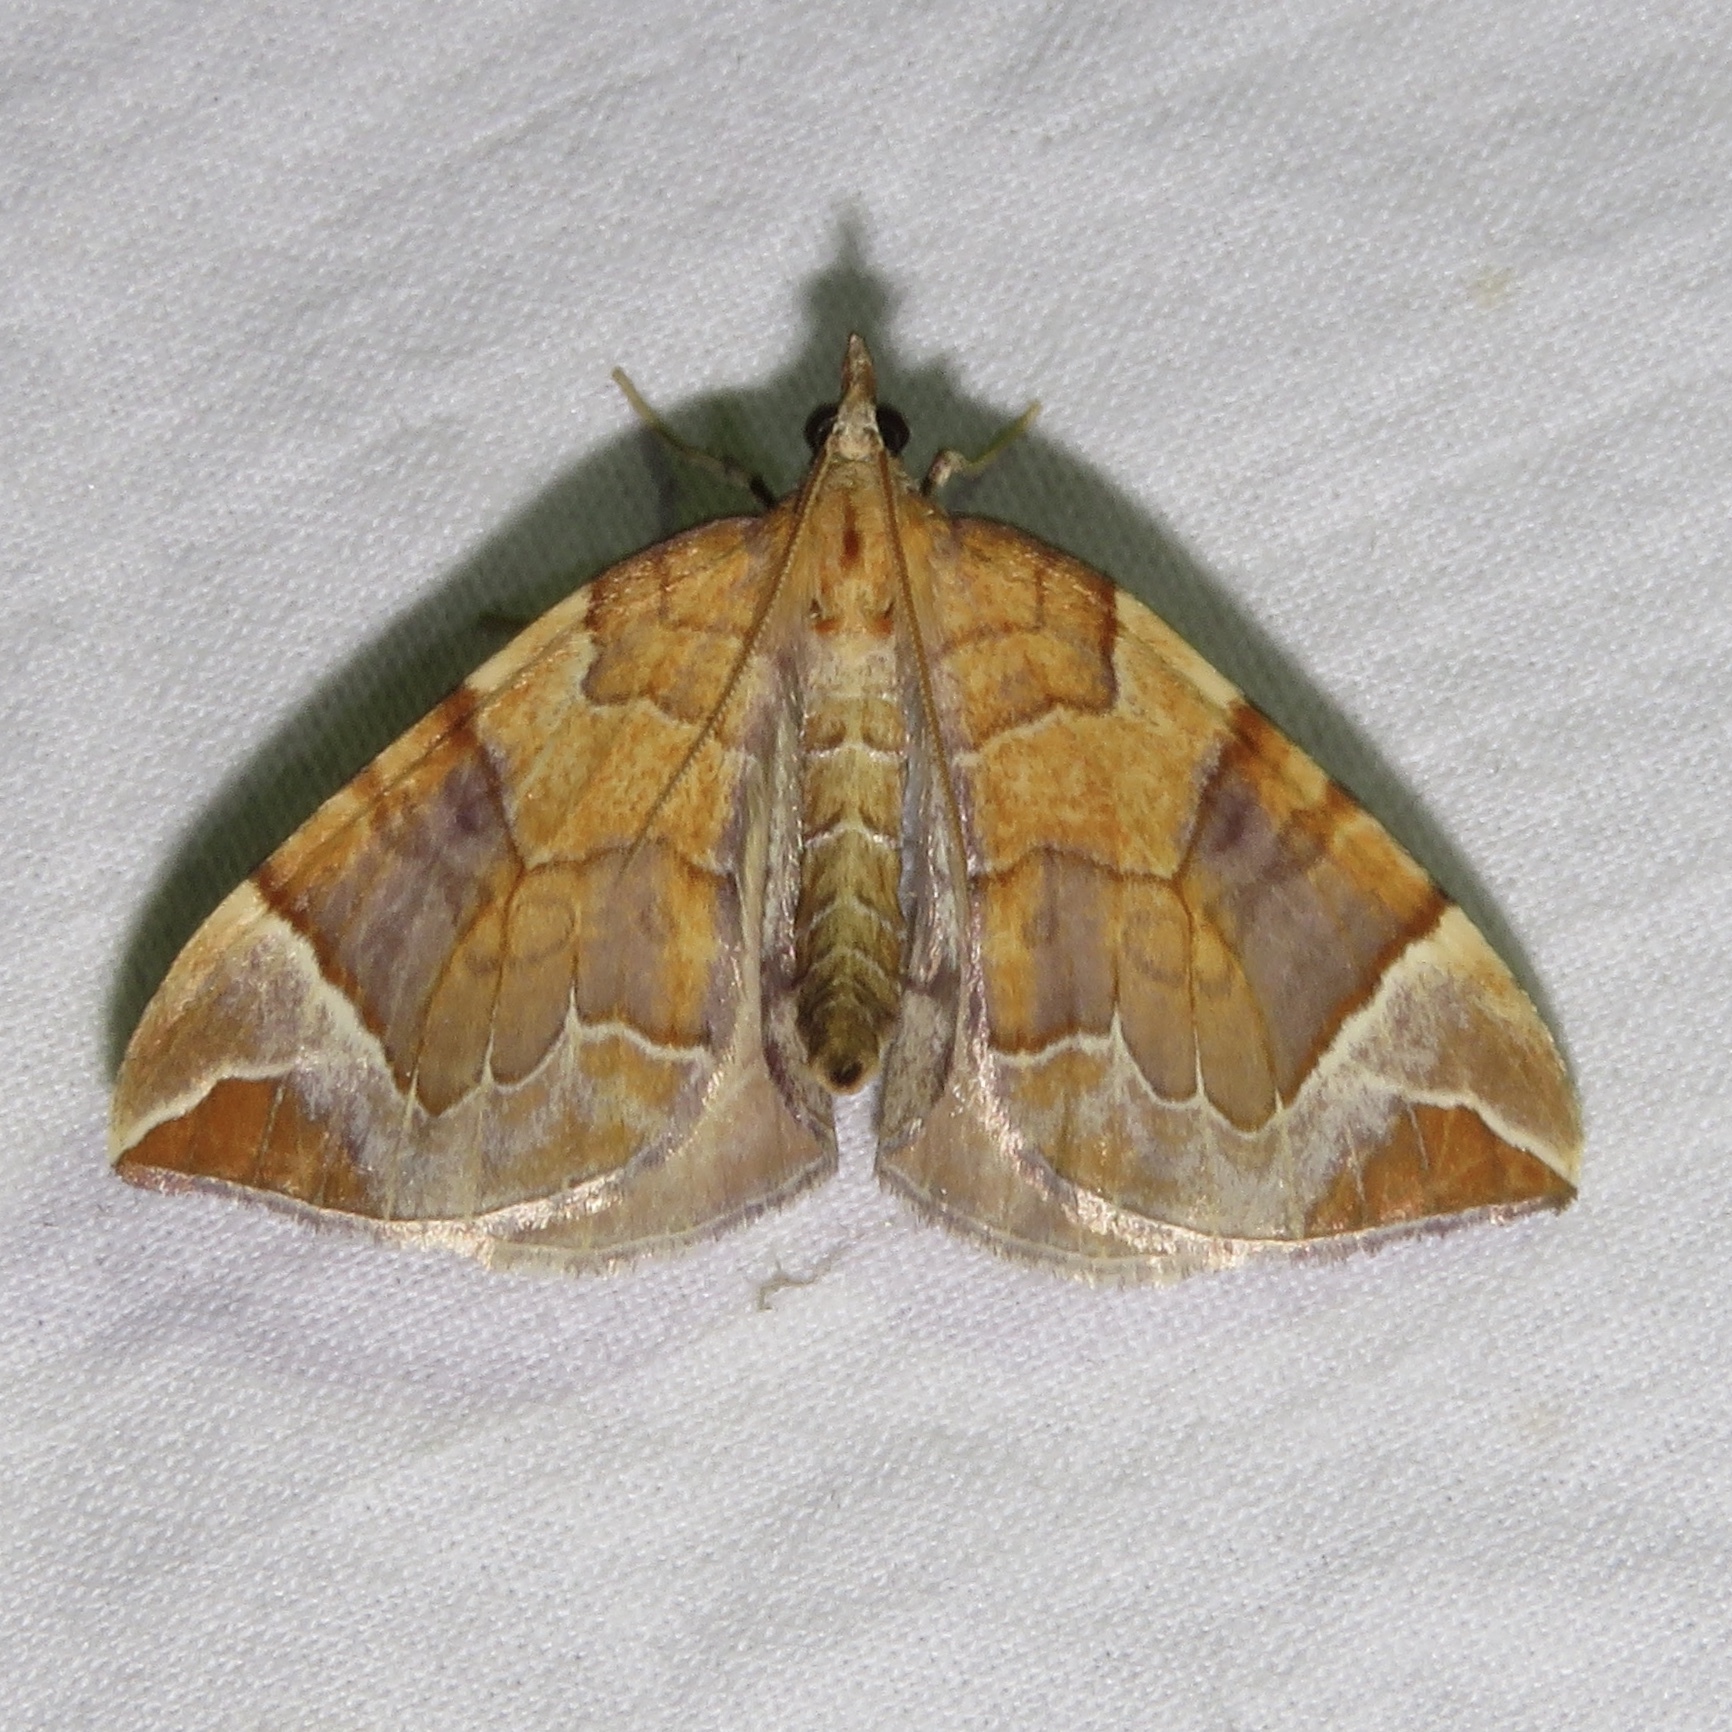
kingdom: Animalia
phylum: Arthropoda
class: Insecta
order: Lepidoptera
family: Geometridae
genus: Eulithis
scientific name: Eulithis testata
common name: Chevron
